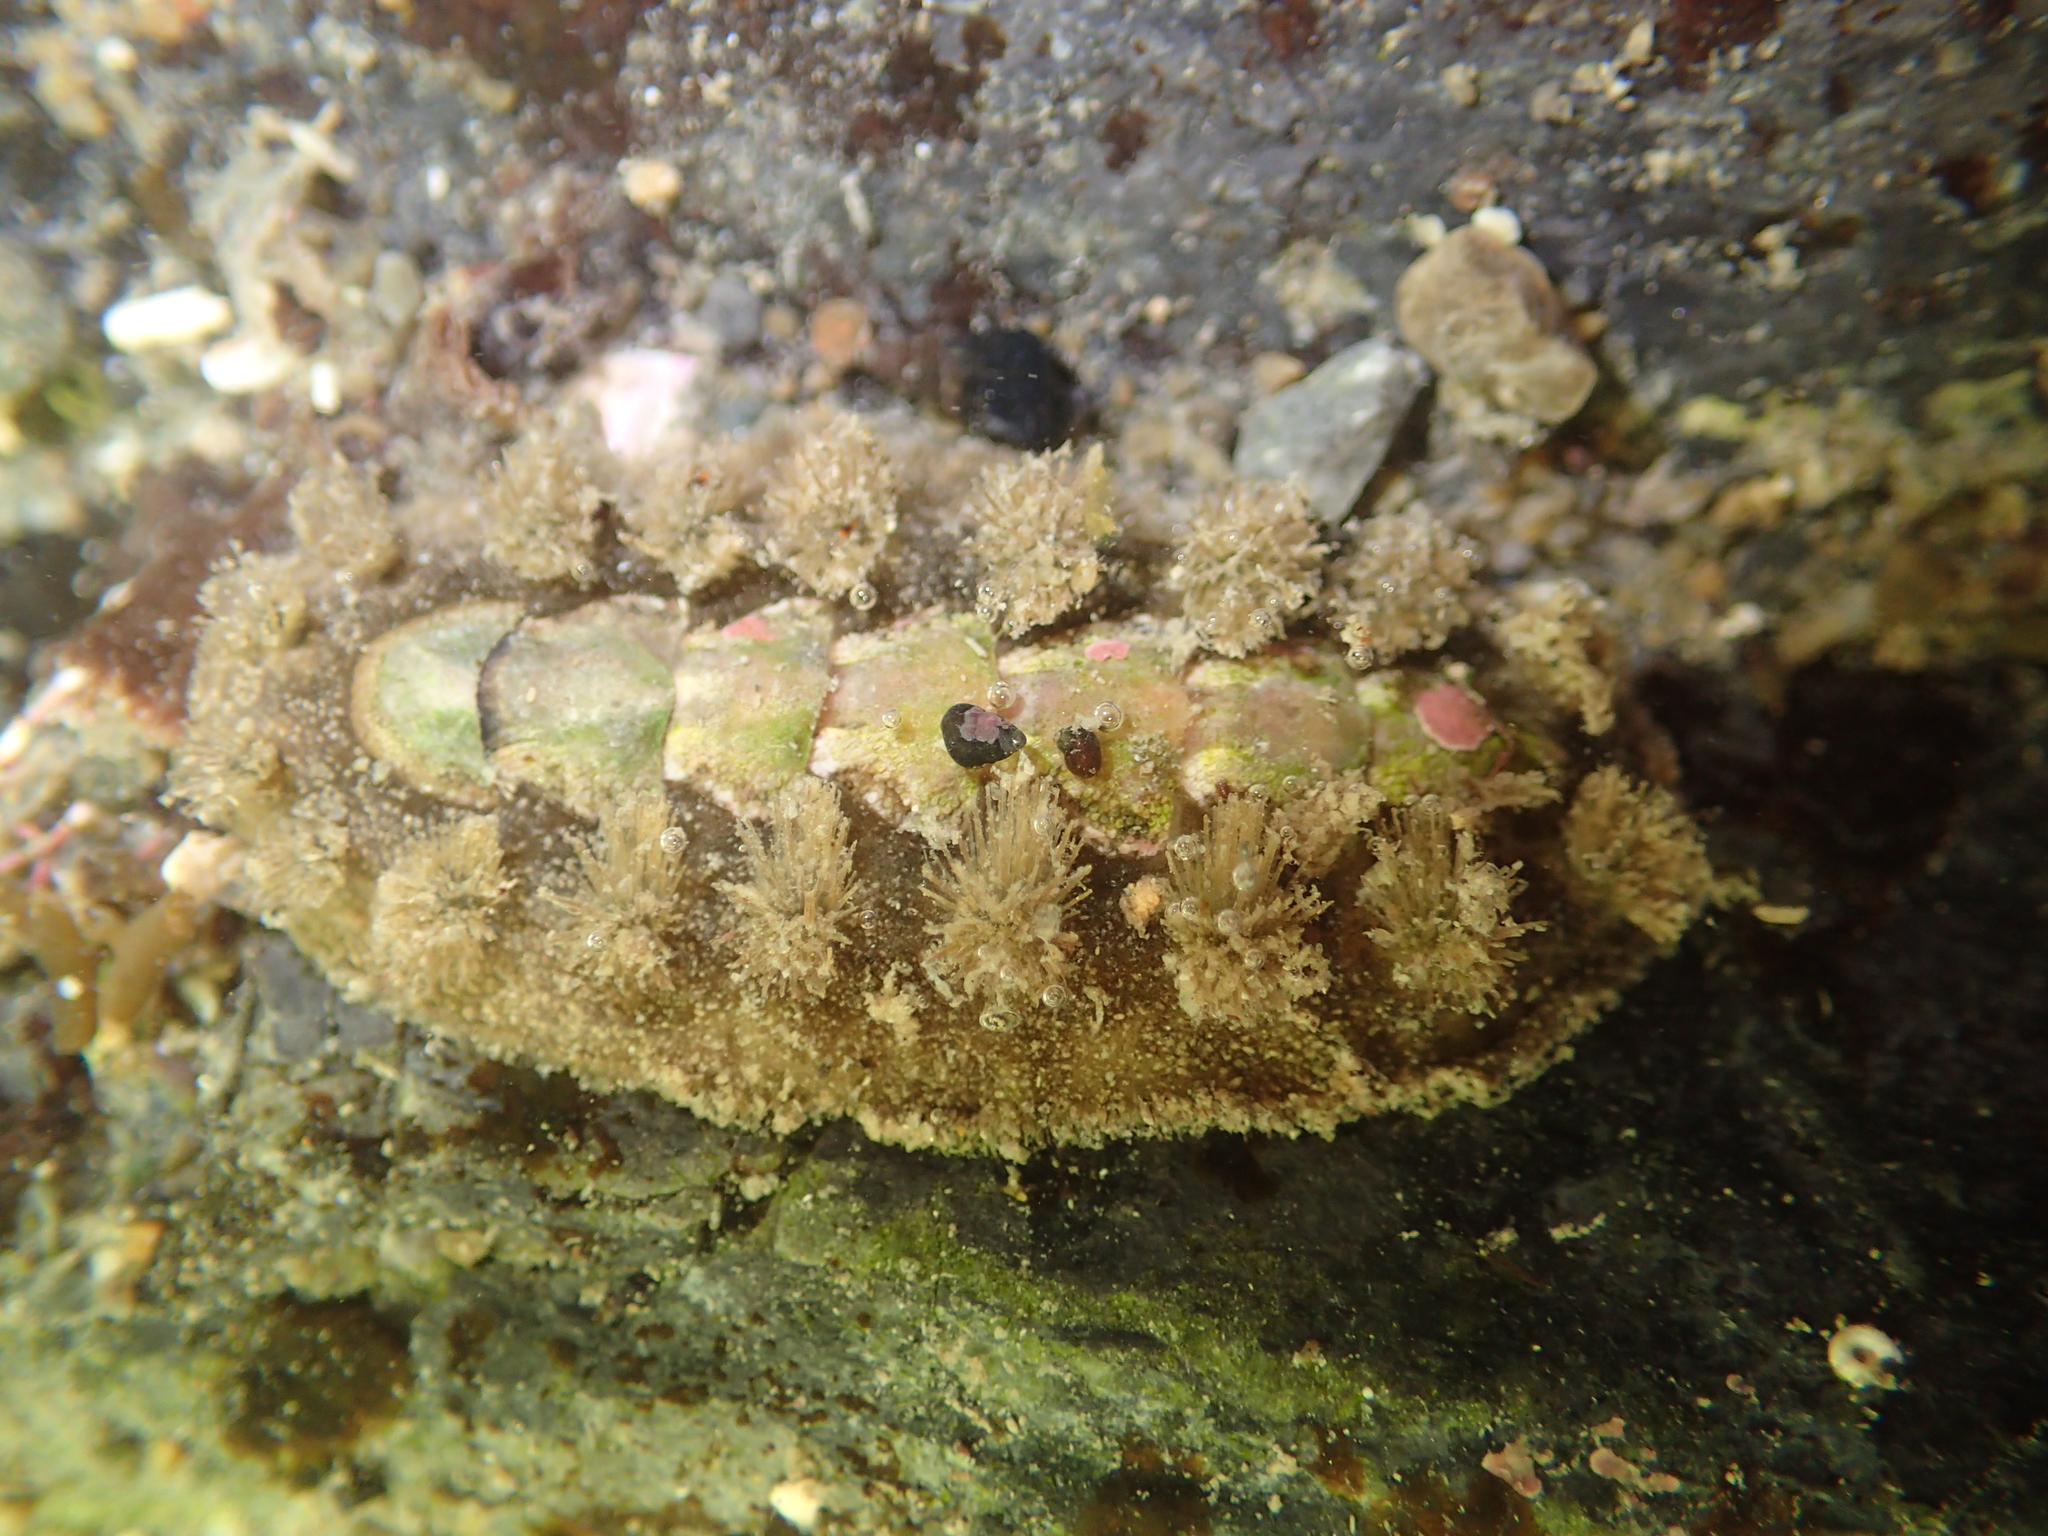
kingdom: Animalia
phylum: Mollusca
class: Polyplacophora
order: Chitonida
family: Acanthochitonidae
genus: Acanthochitona
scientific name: Acanthochitona zelandica
